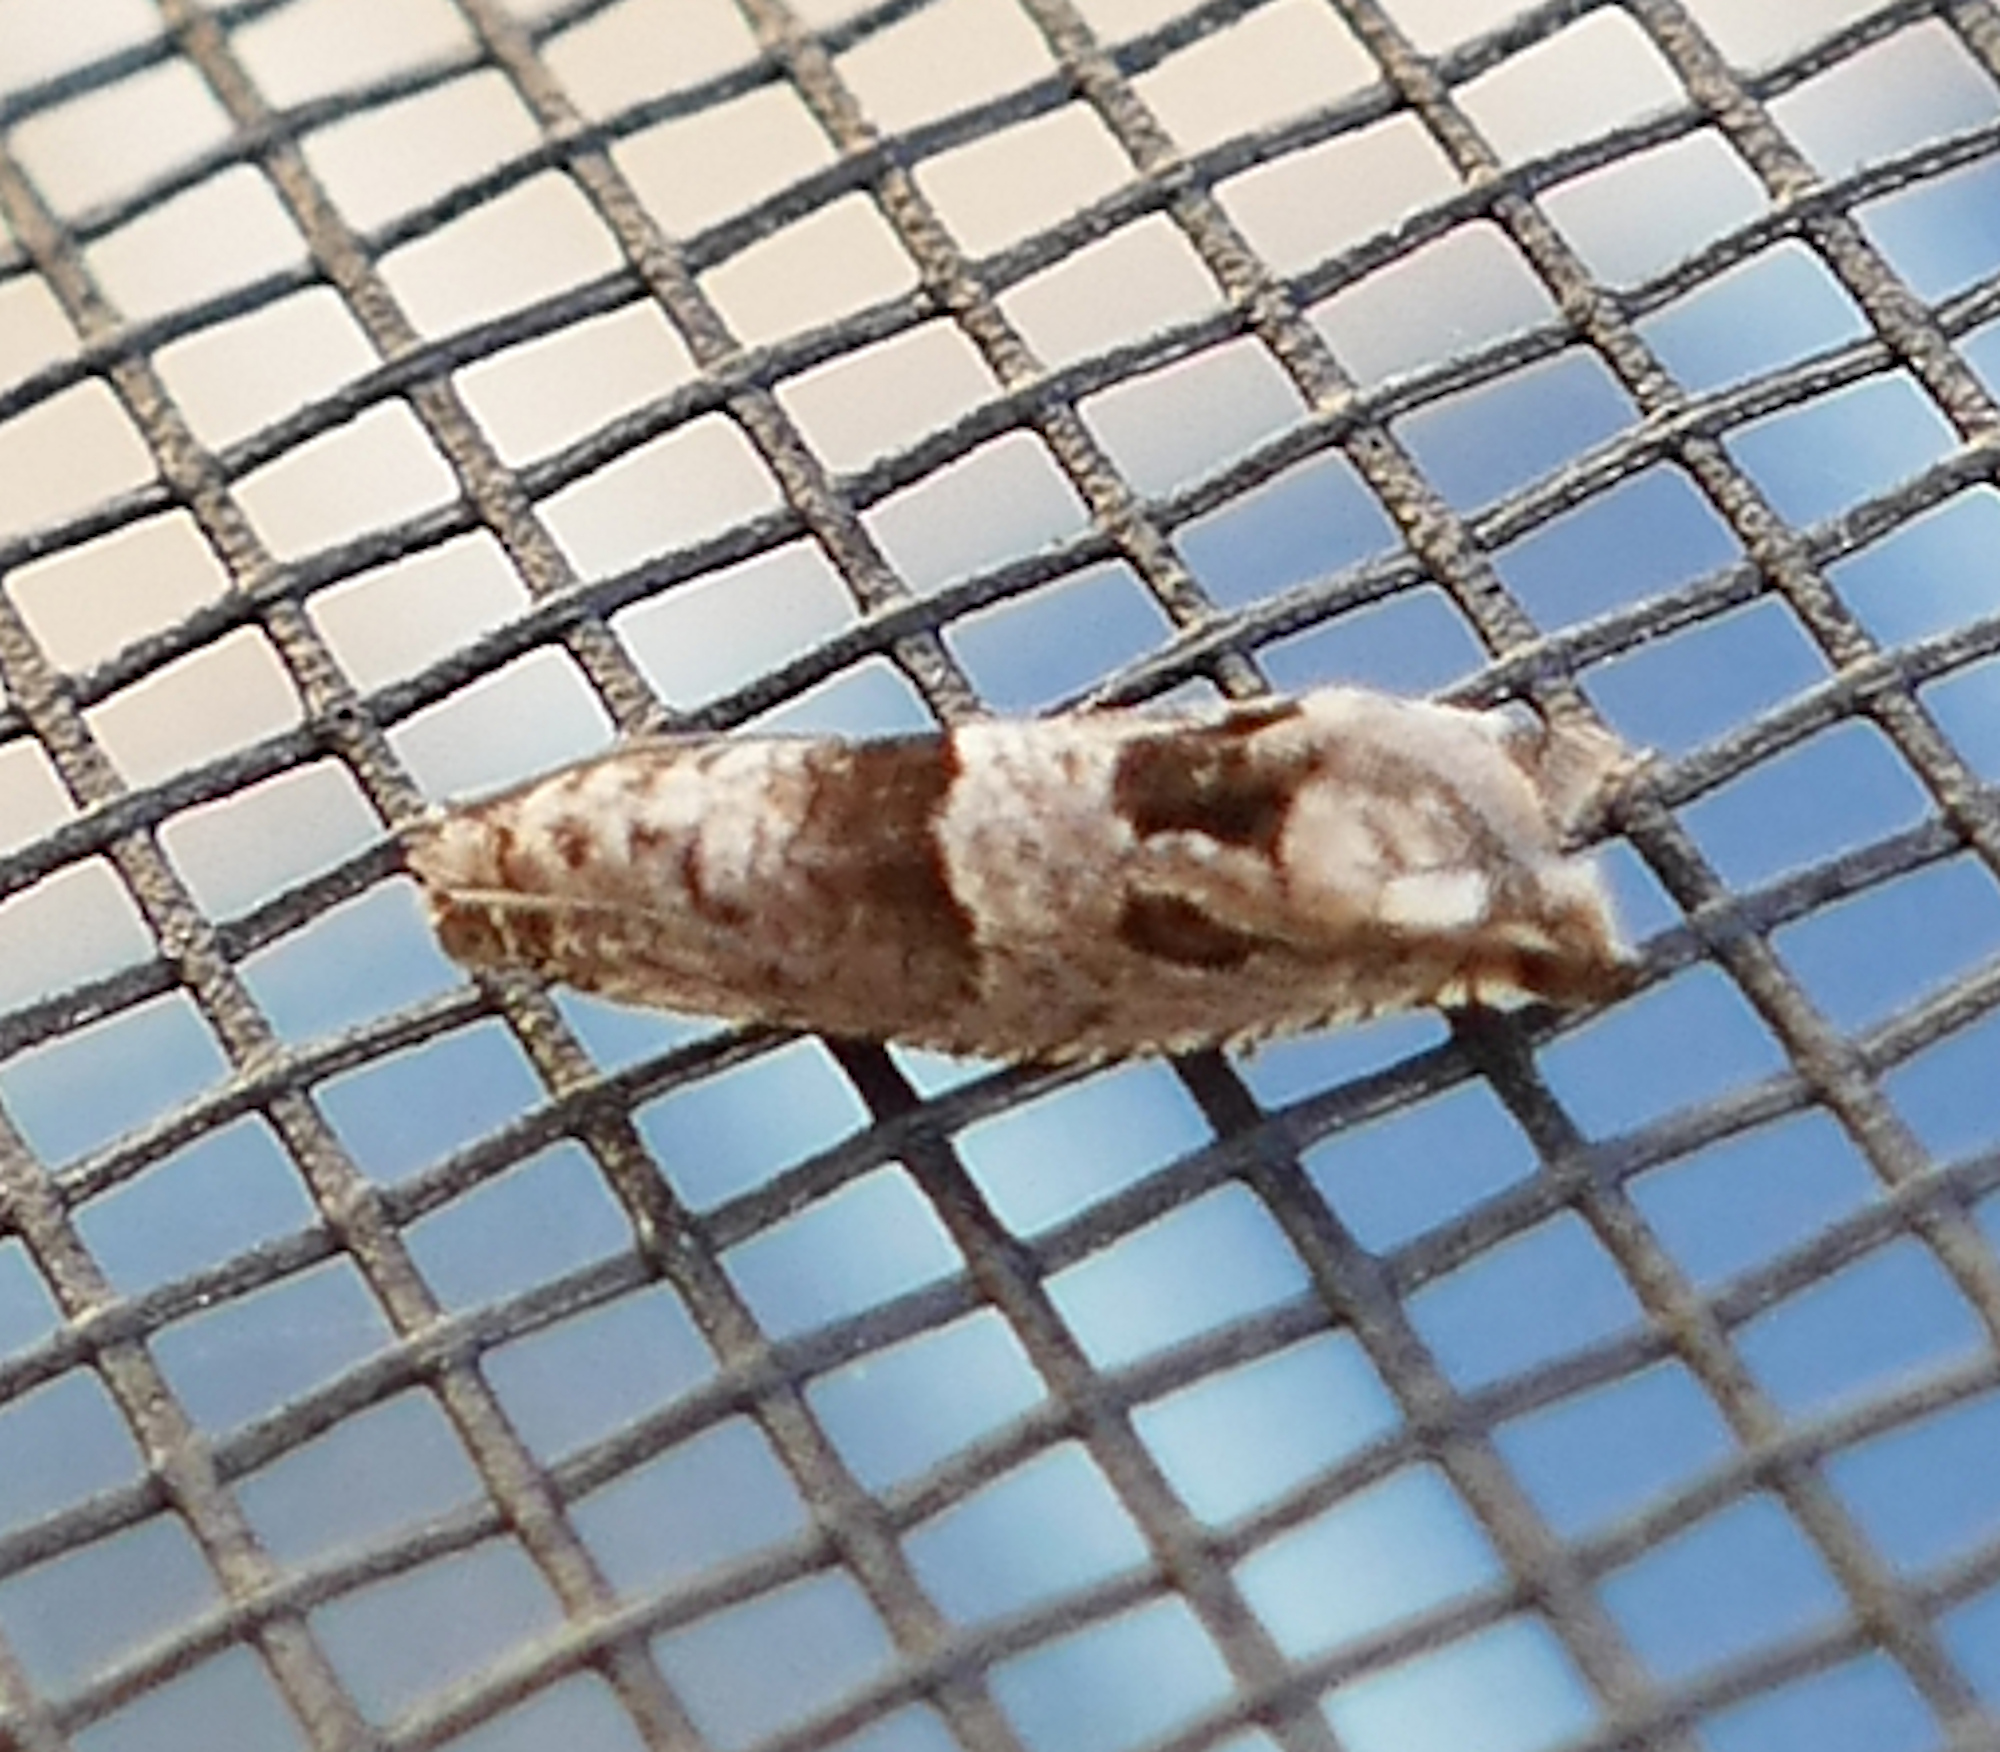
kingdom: Animalia
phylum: Arthropoda
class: Insecta
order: Lepidoptera
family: Tortricidae
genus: Sonia
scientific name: Sonia constrictana
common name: Constricted sonia moth
